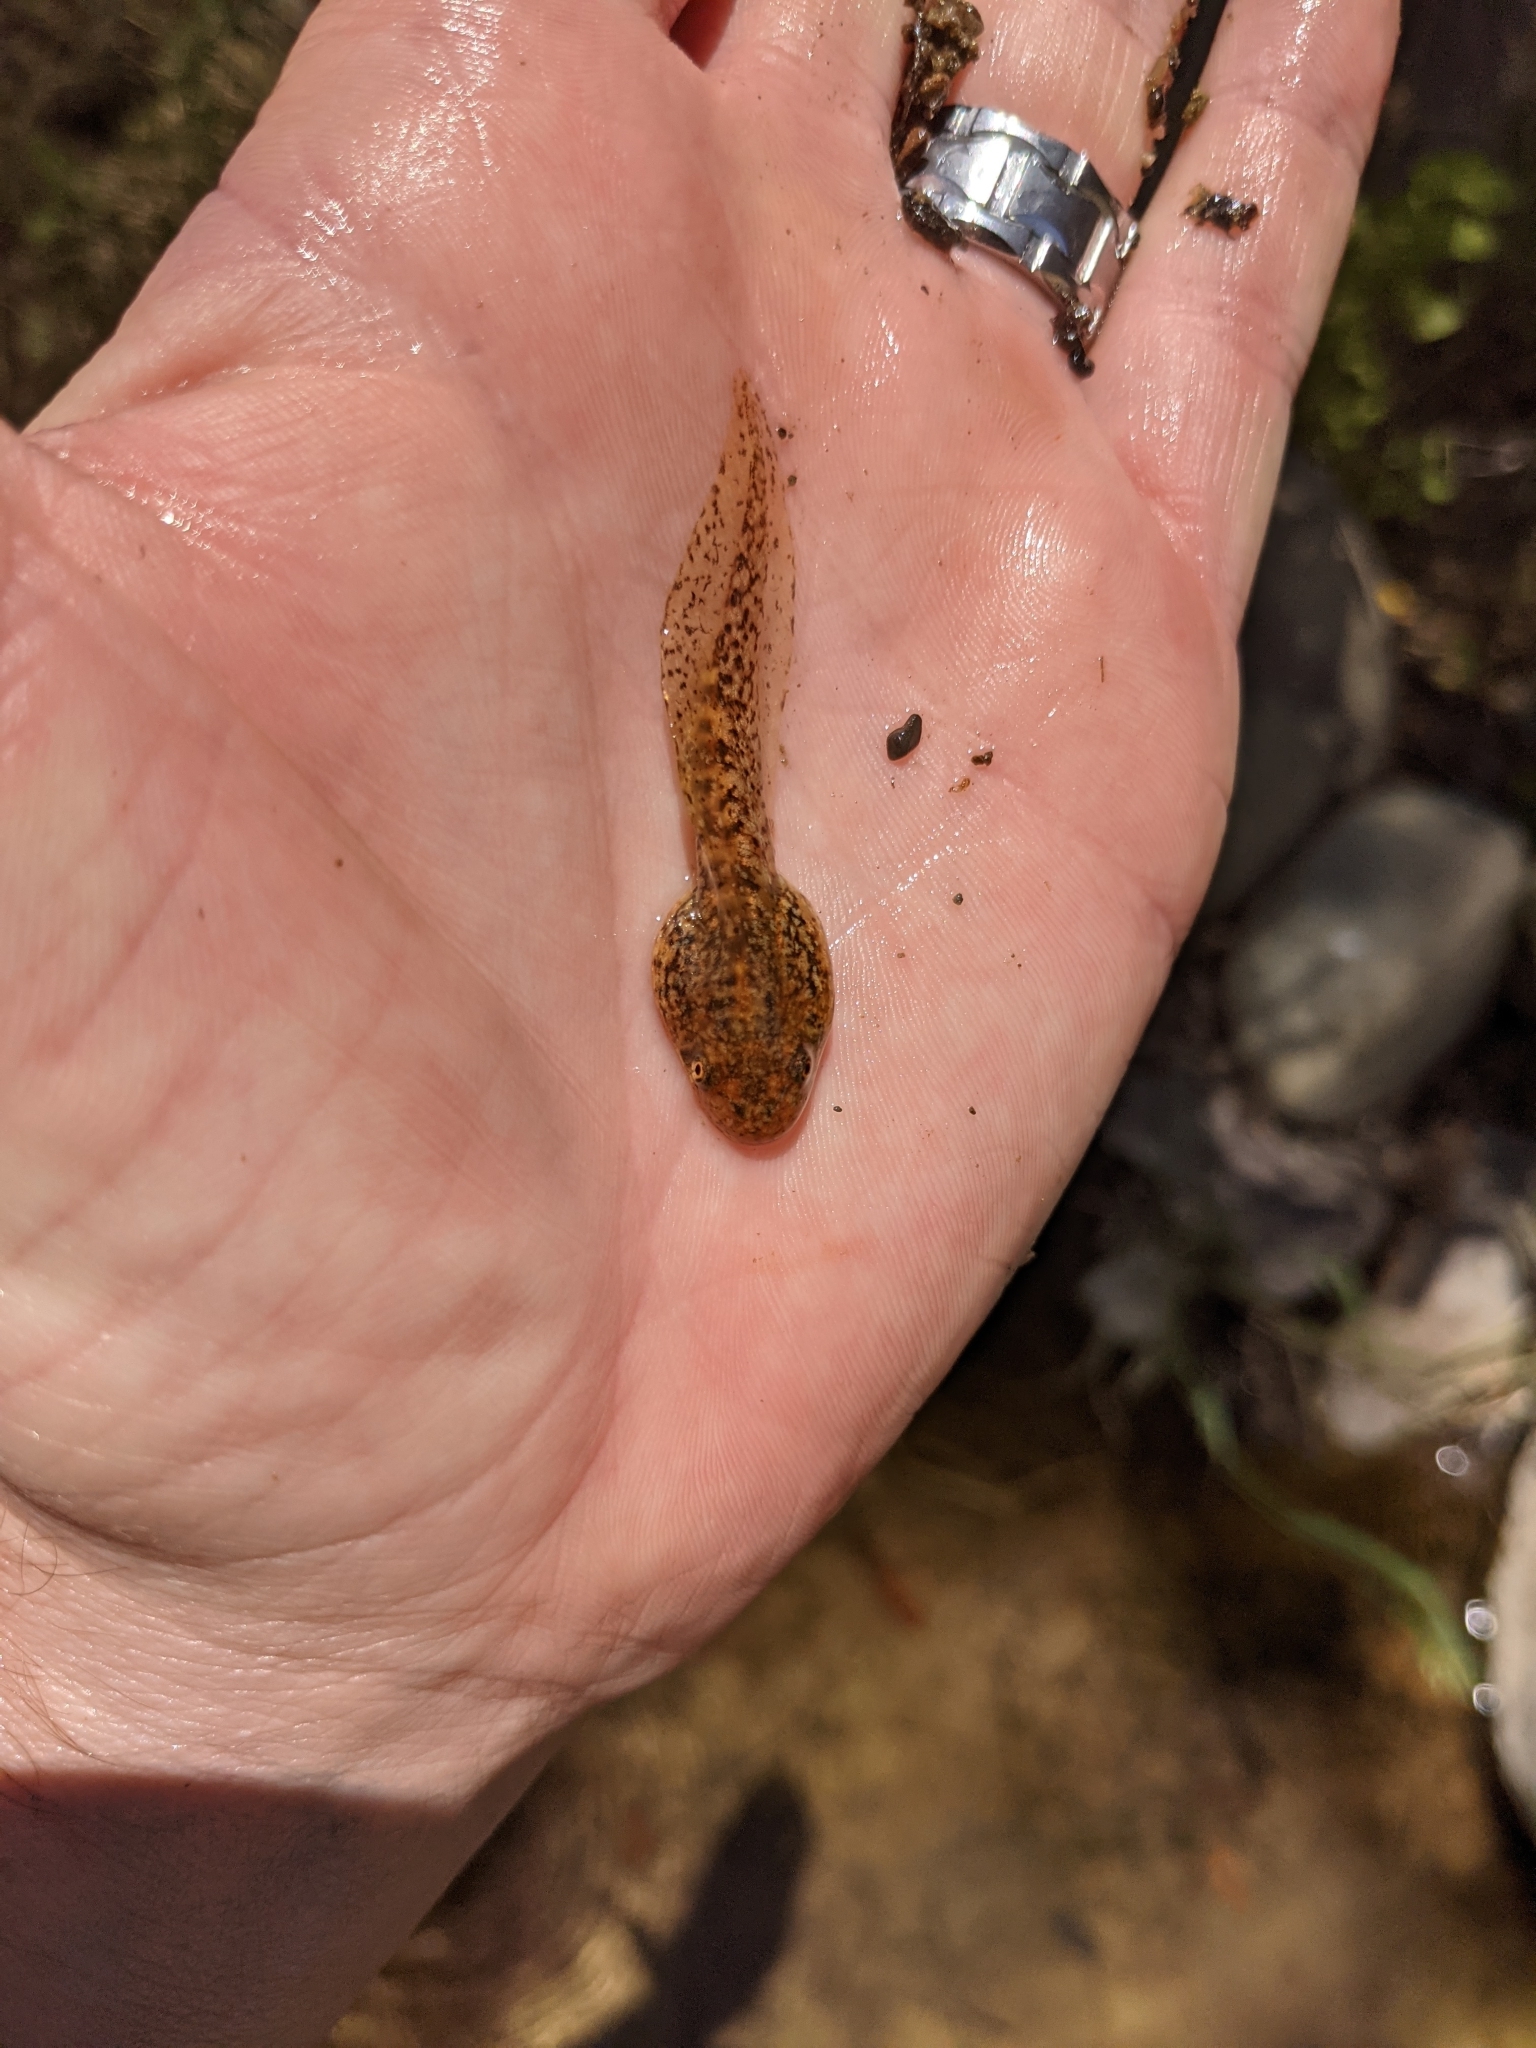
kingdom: Animalia
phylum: Chordata
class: Amphibia
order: Anura
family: Hylidae
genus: Pseudacris
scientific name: Pseudacris cadaverina
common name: California chorus frog
